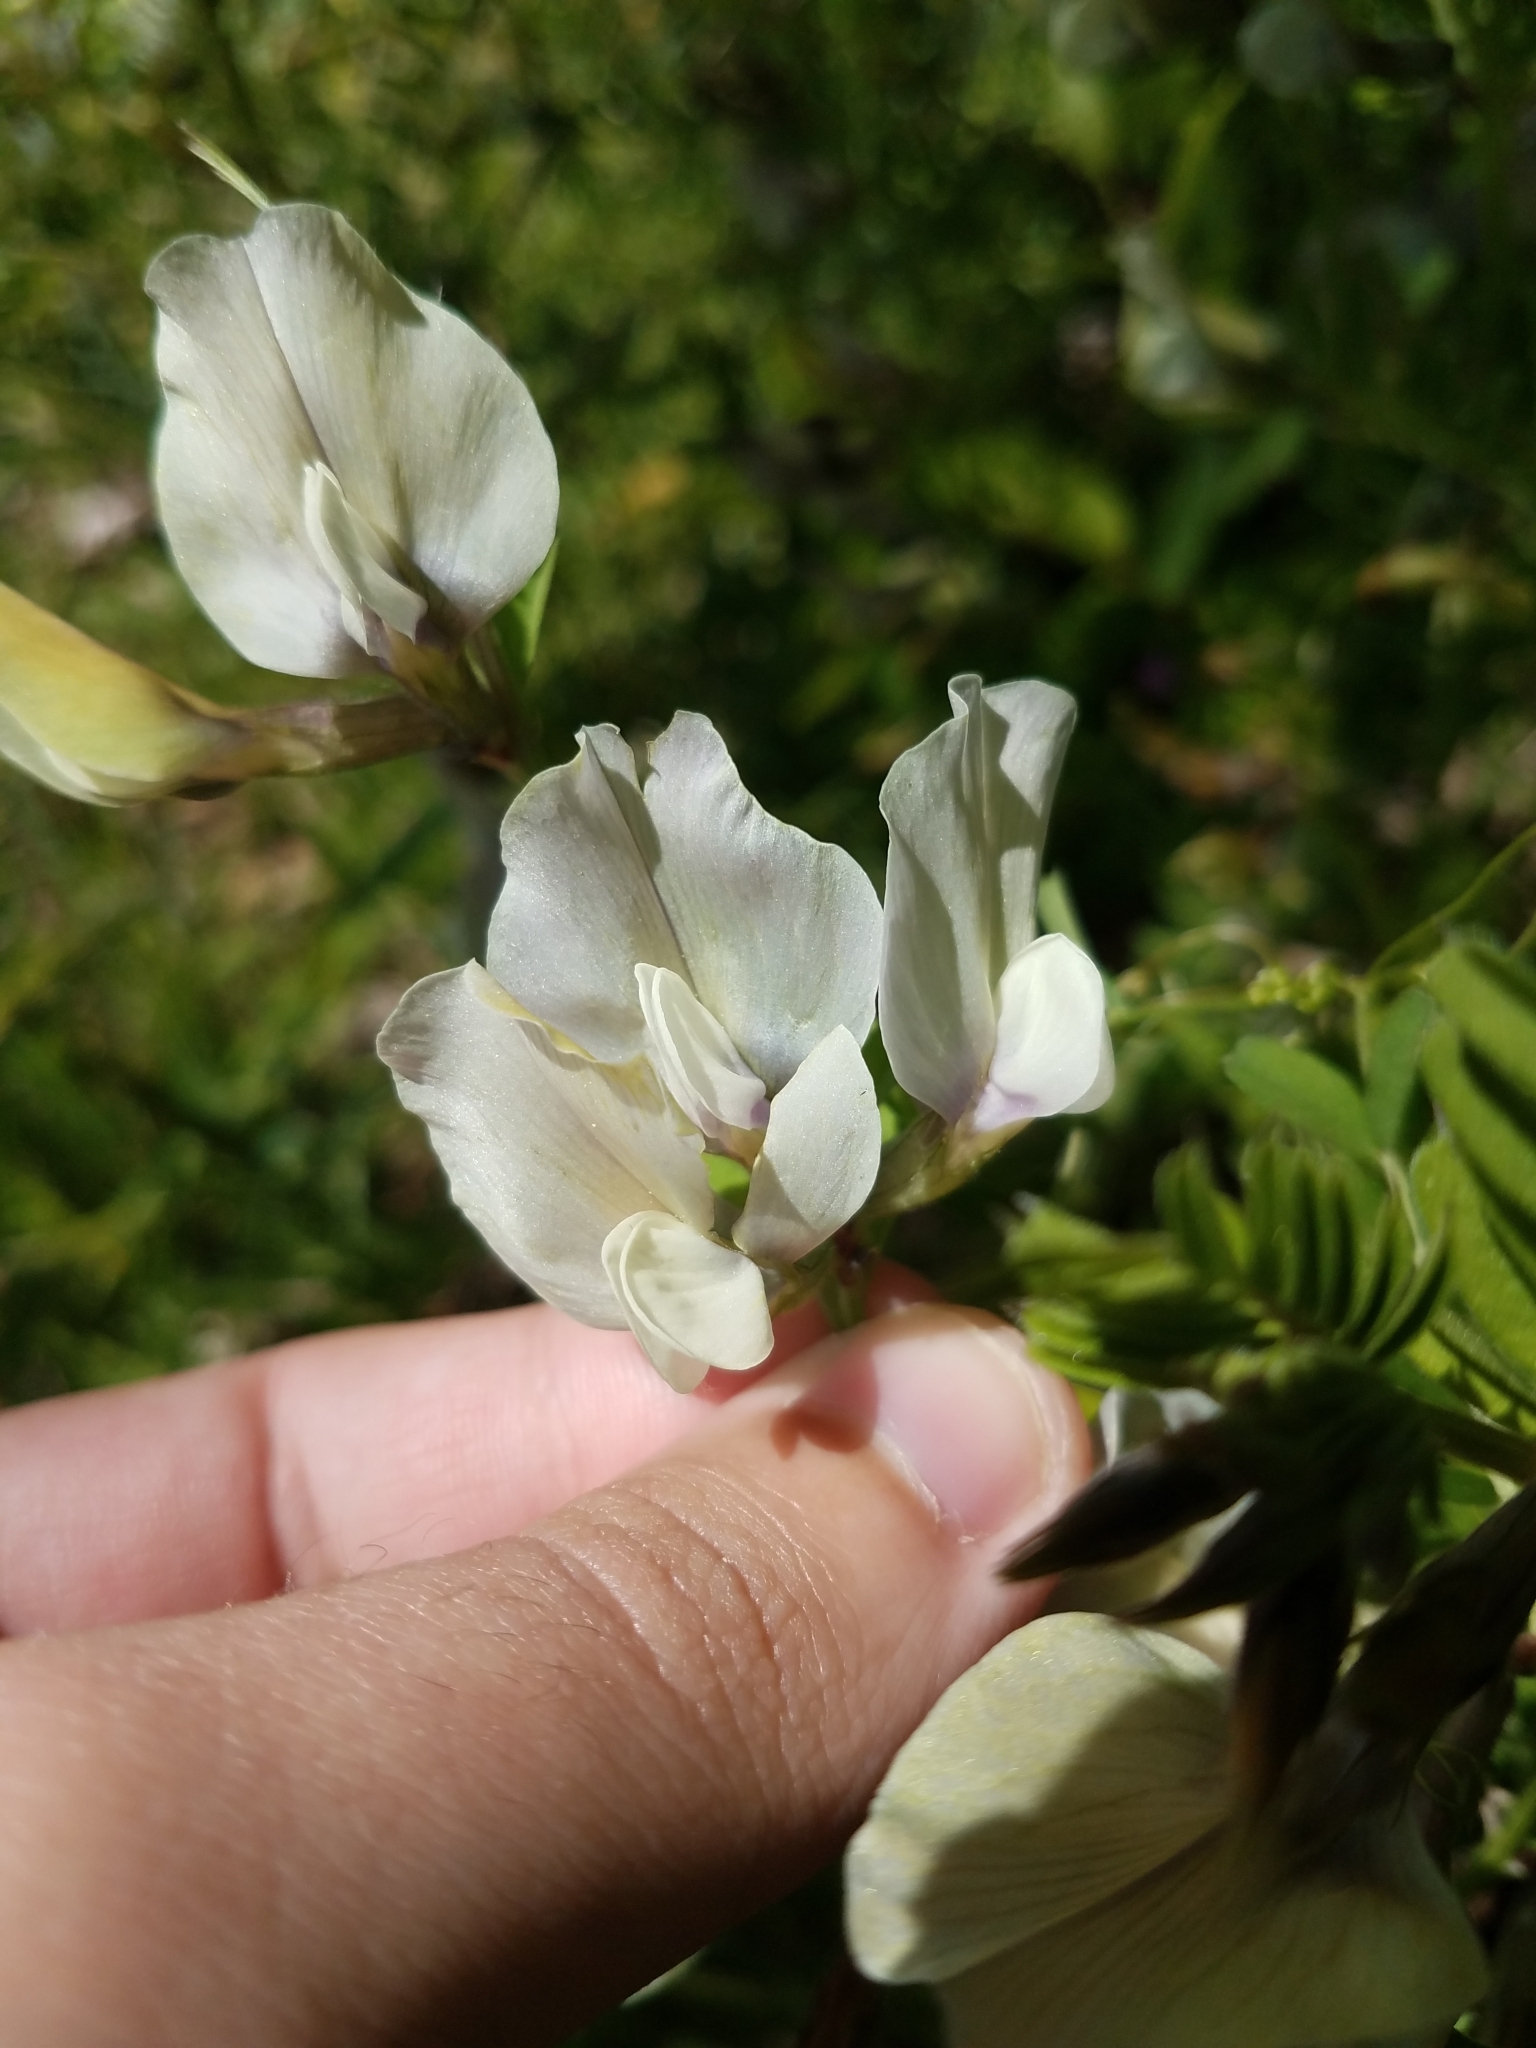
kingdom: Plantae
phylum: Tracheophyta
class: Magnoliopsida
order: Fabales
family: Fabaceae
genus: Vicia
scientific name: Vicia grandiflora
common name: Large yellow vetch
